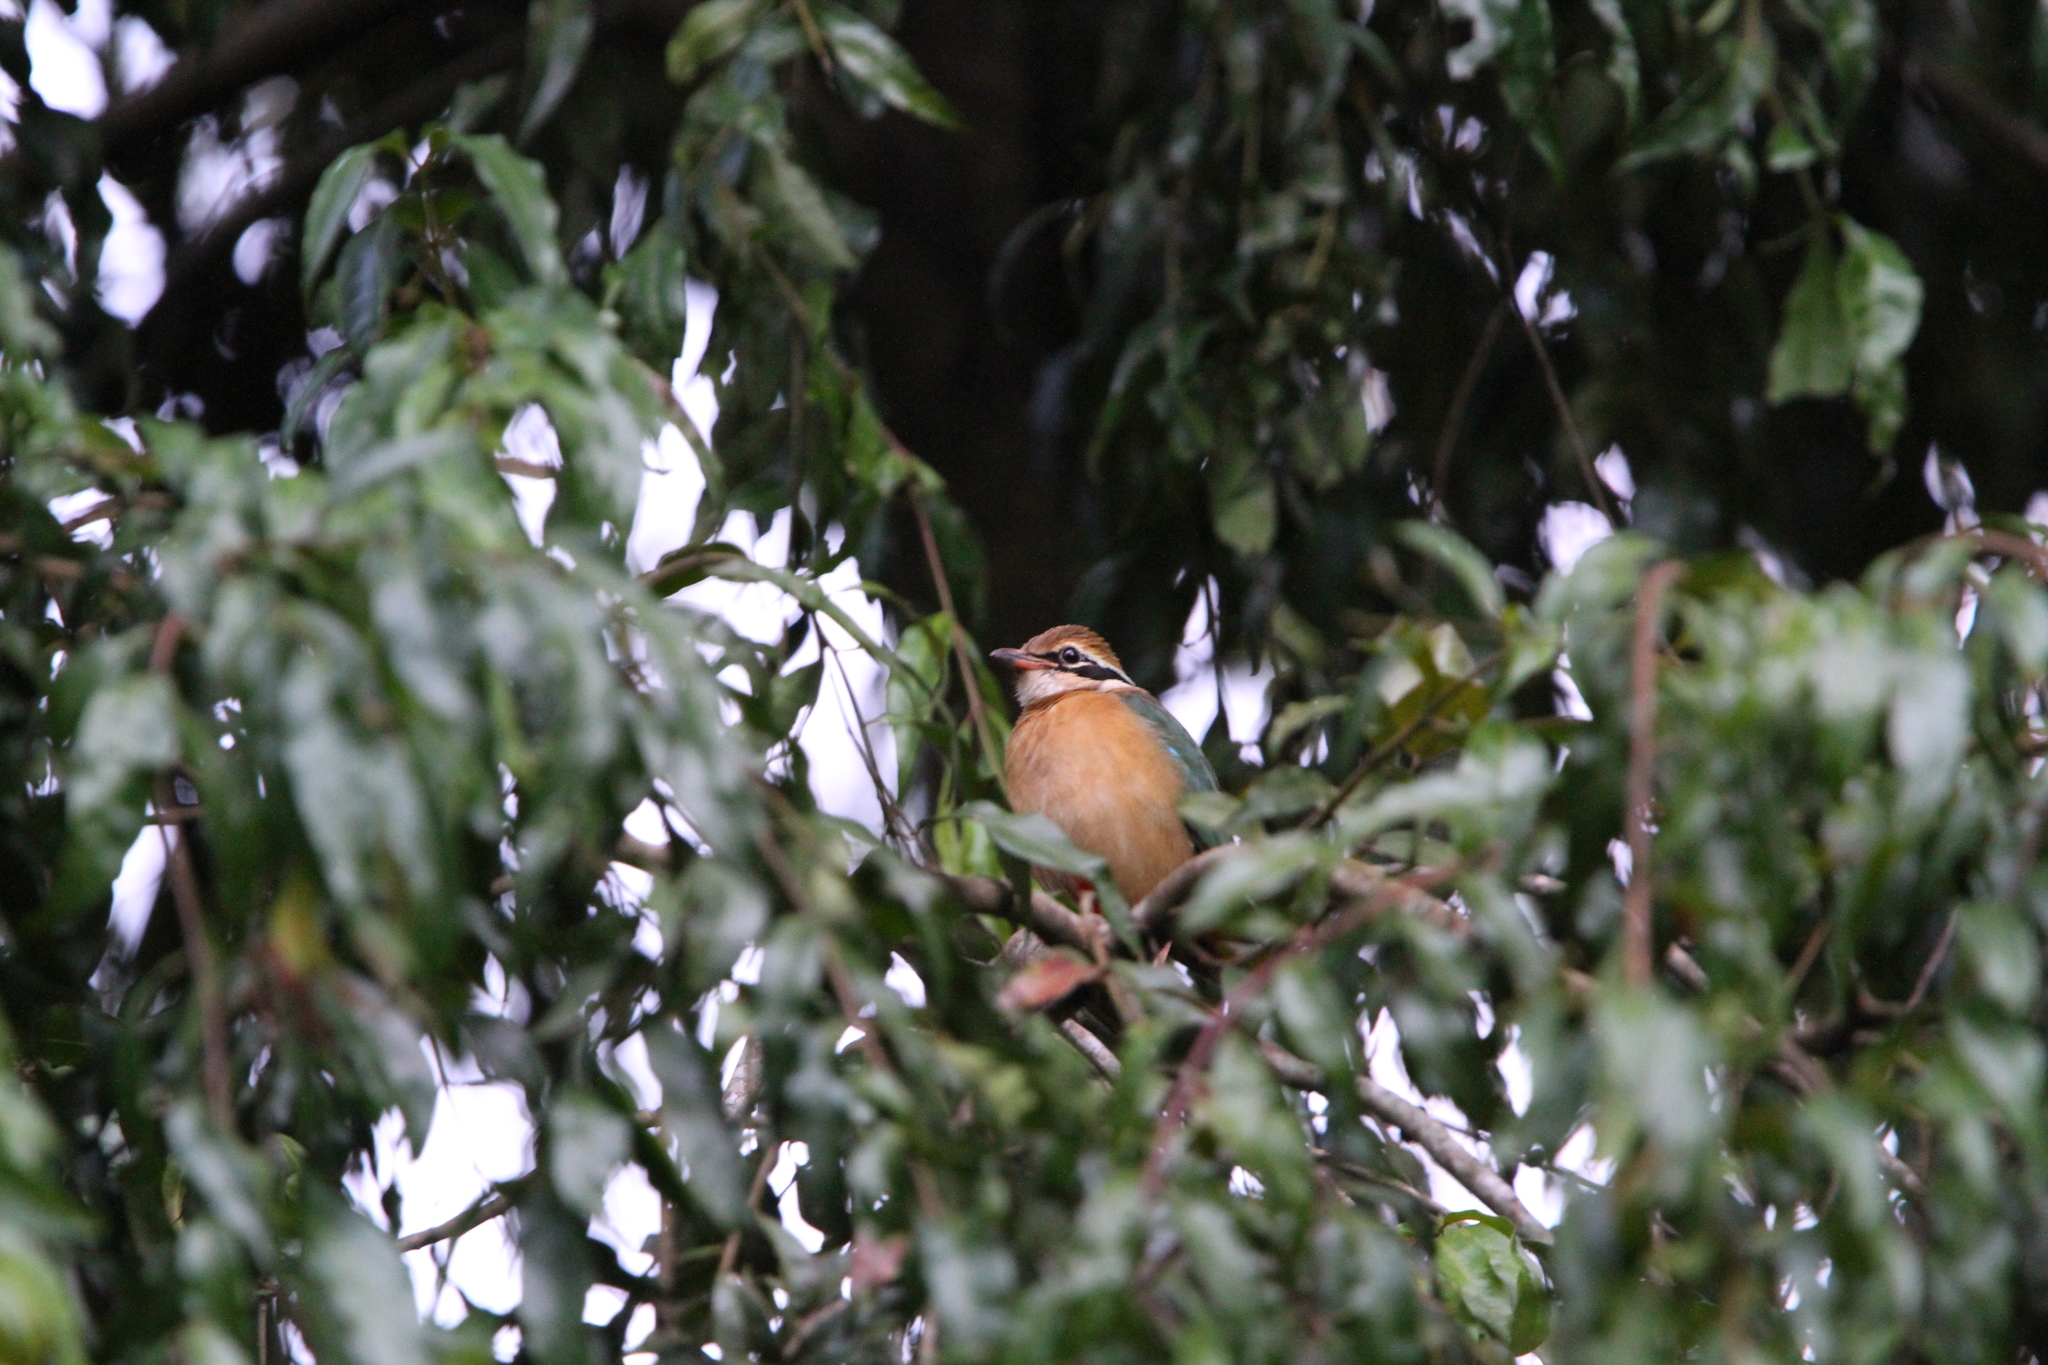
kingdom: Animalia
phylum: Chordata
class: Aves
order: Passeriformes
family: Pittidae
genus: Pitta
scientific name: Pitta brachyura
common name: Indian pitta
